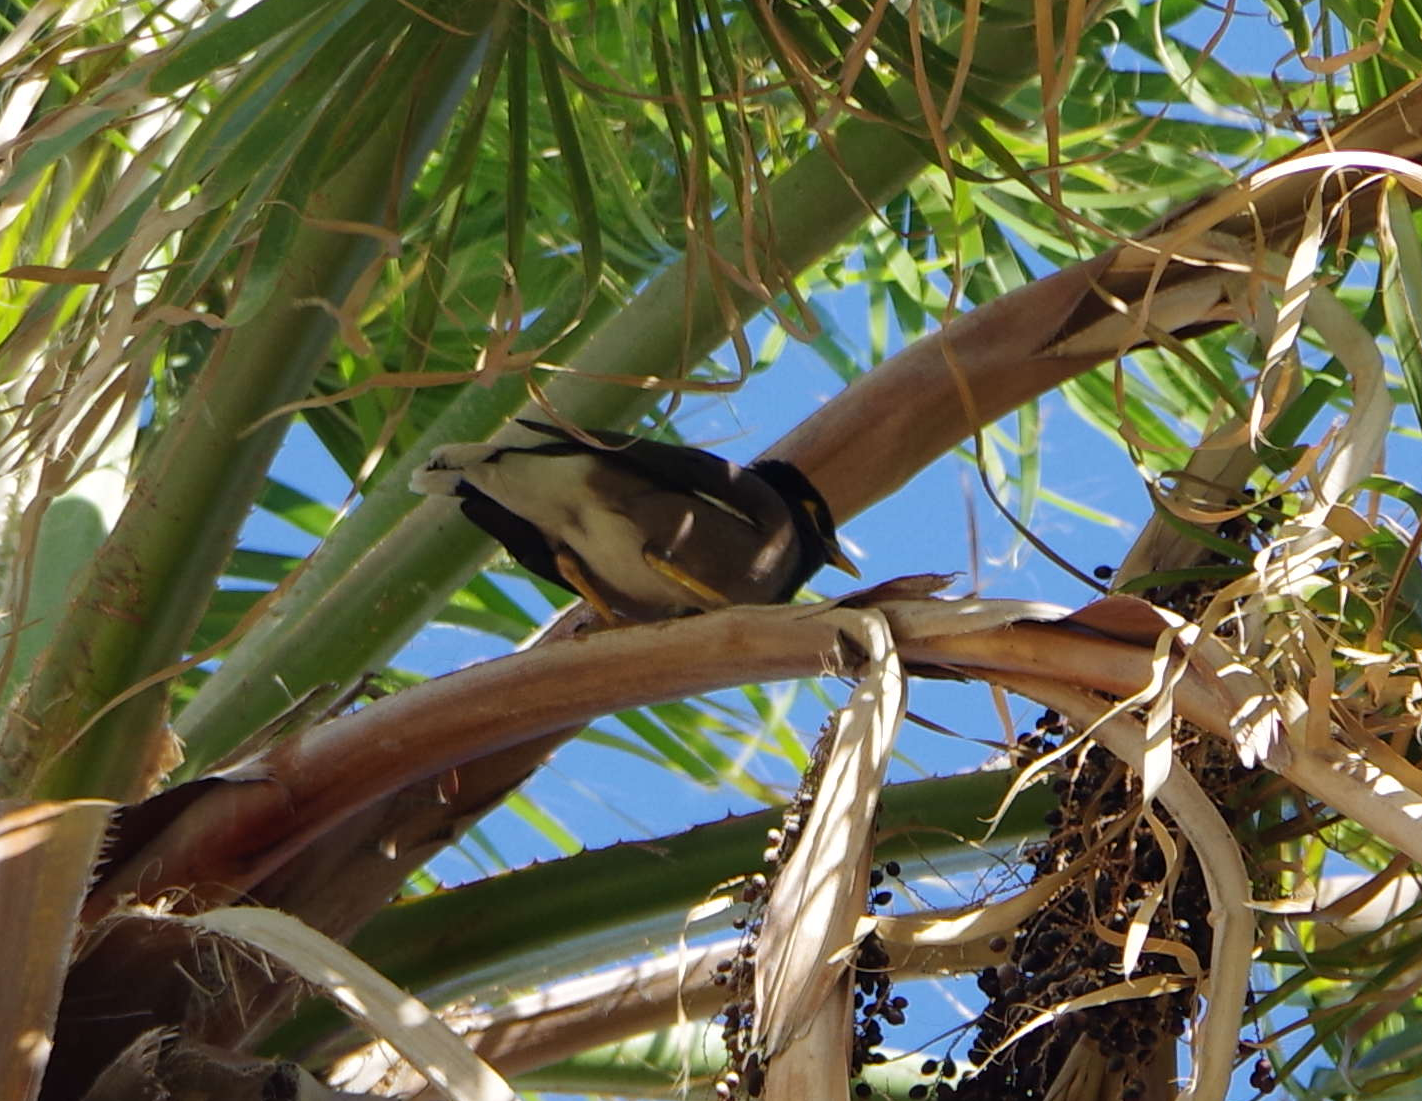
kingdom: Animalia
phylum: Chordata
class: Aves
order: Passeriformes
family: Sturnidae
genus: Acridotheres
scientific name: Acridotheres tristis
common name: Common myna
